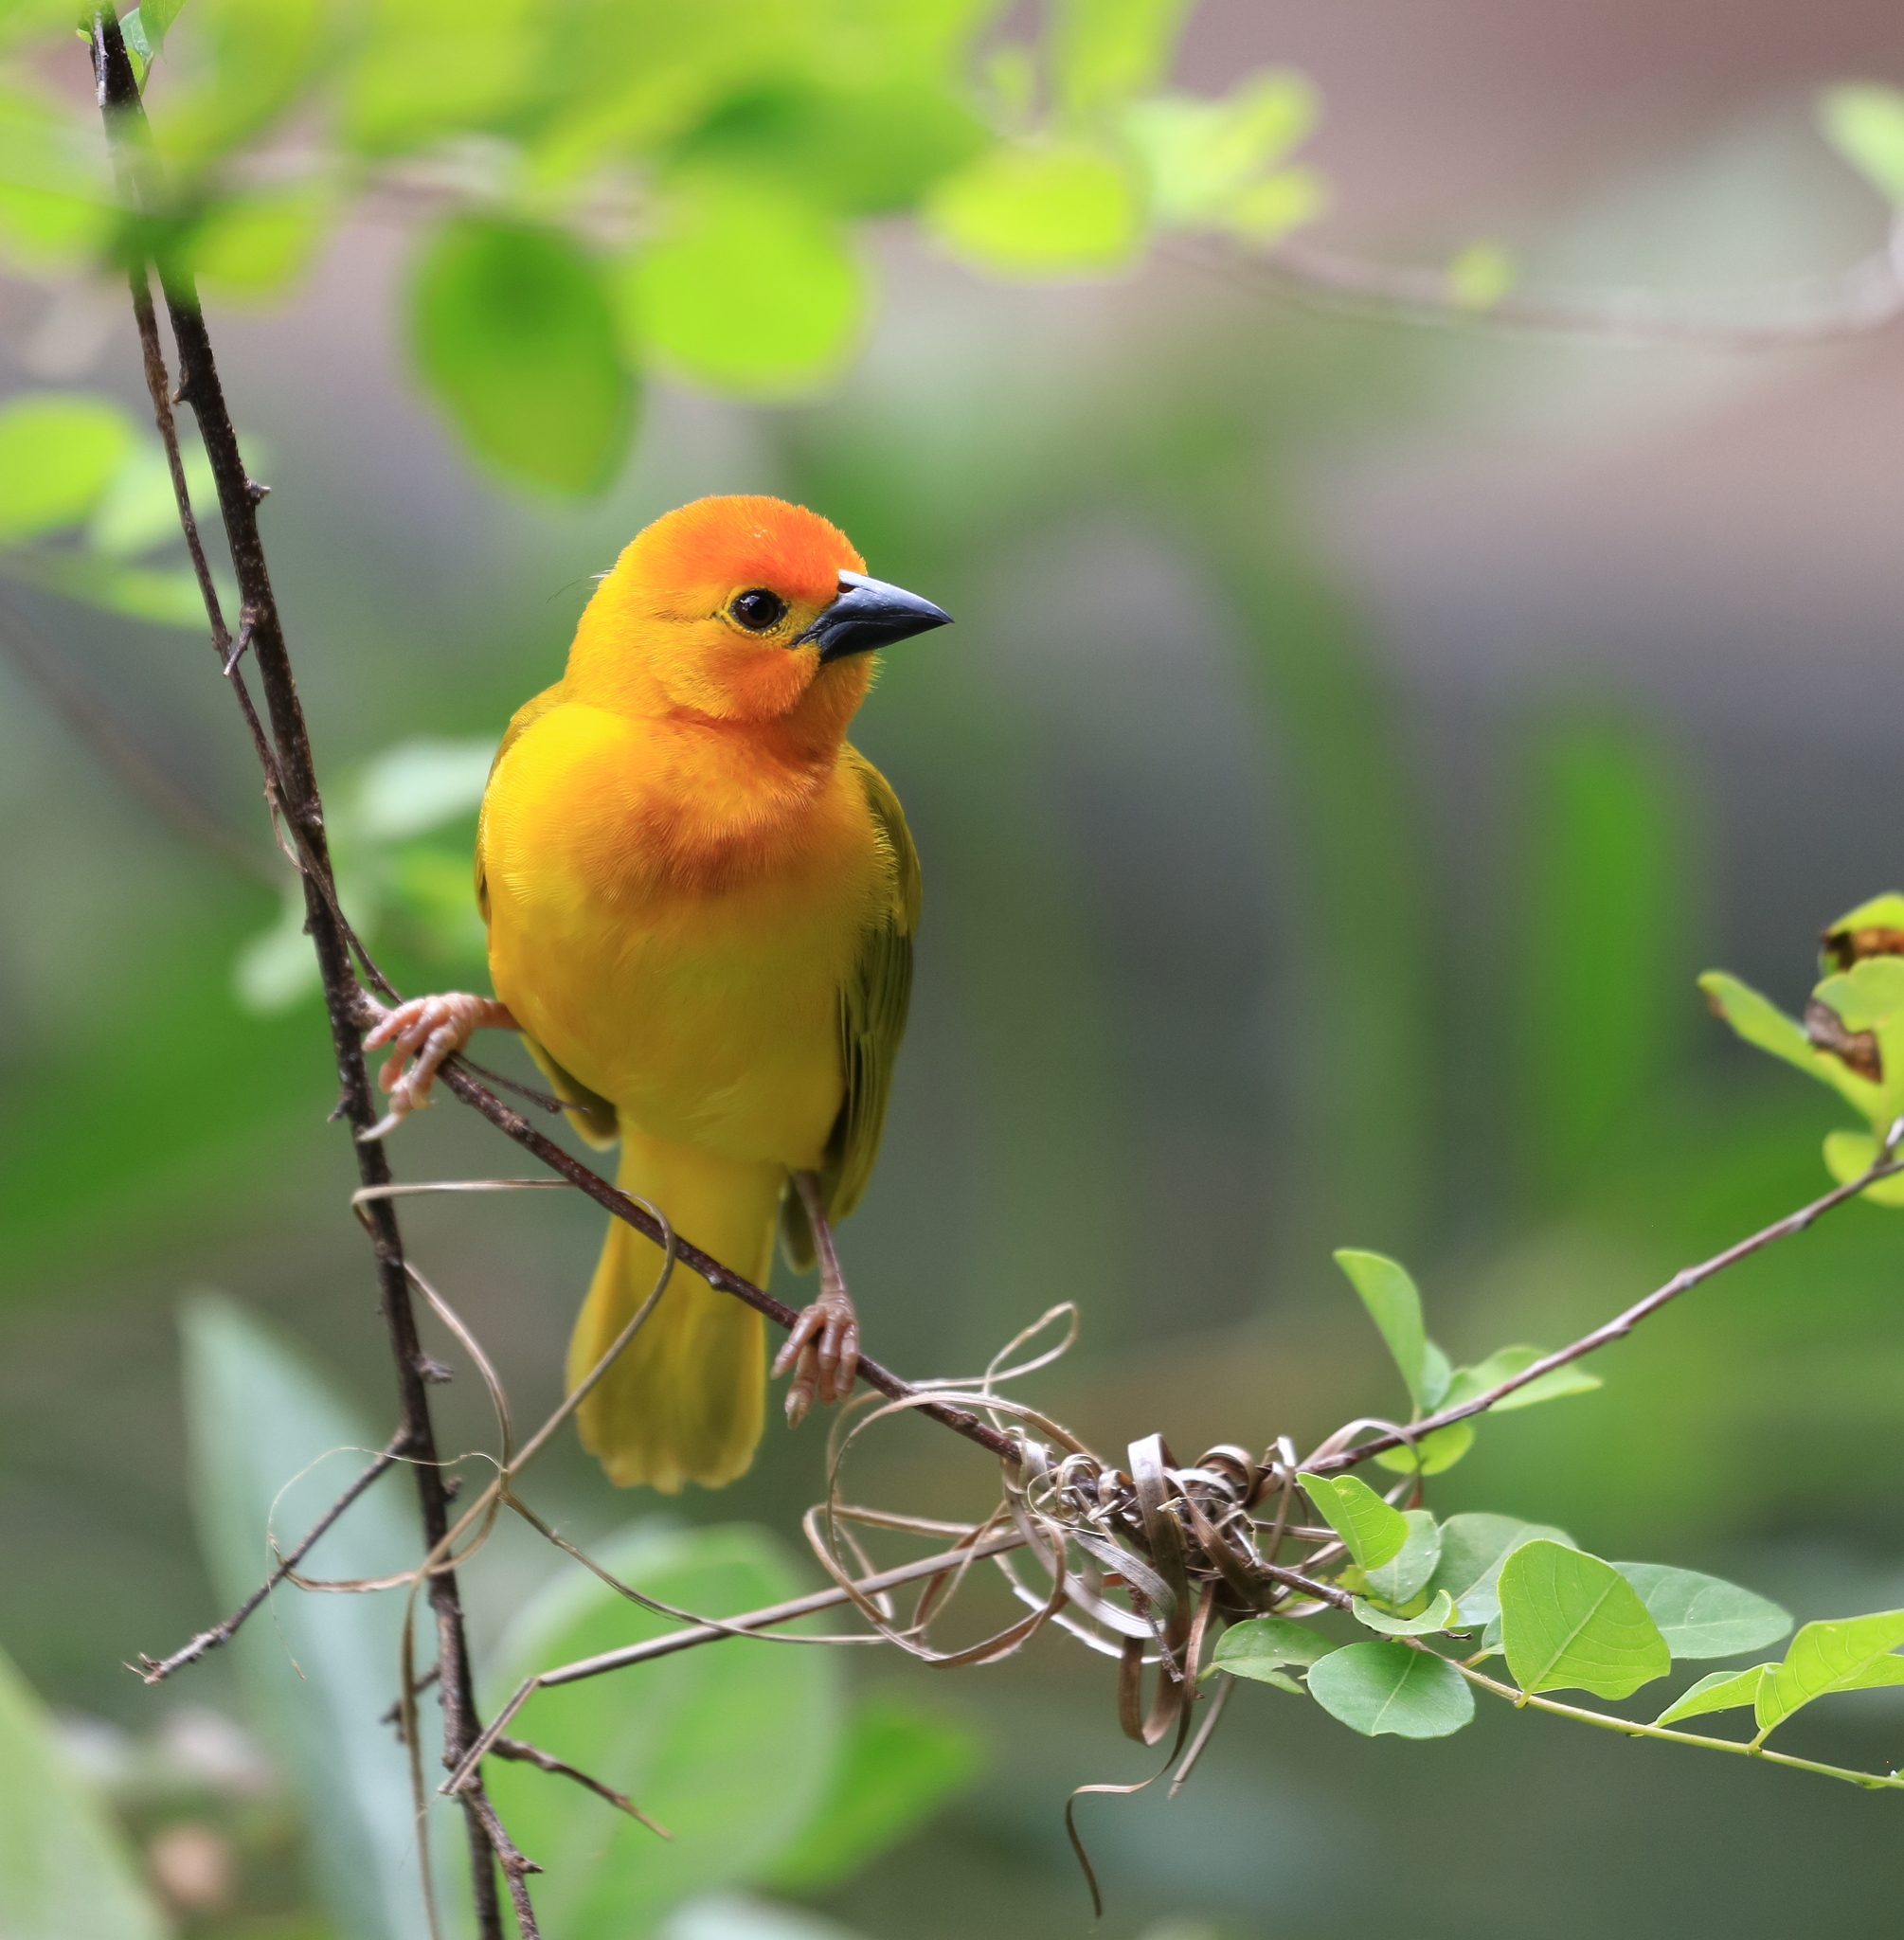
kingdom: Animalia
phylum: Chordata
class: Aves
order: Passeriformes
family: Ploceidae
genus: Ploceus
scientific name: Ploceus bojeri
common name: Golden palm weaver
